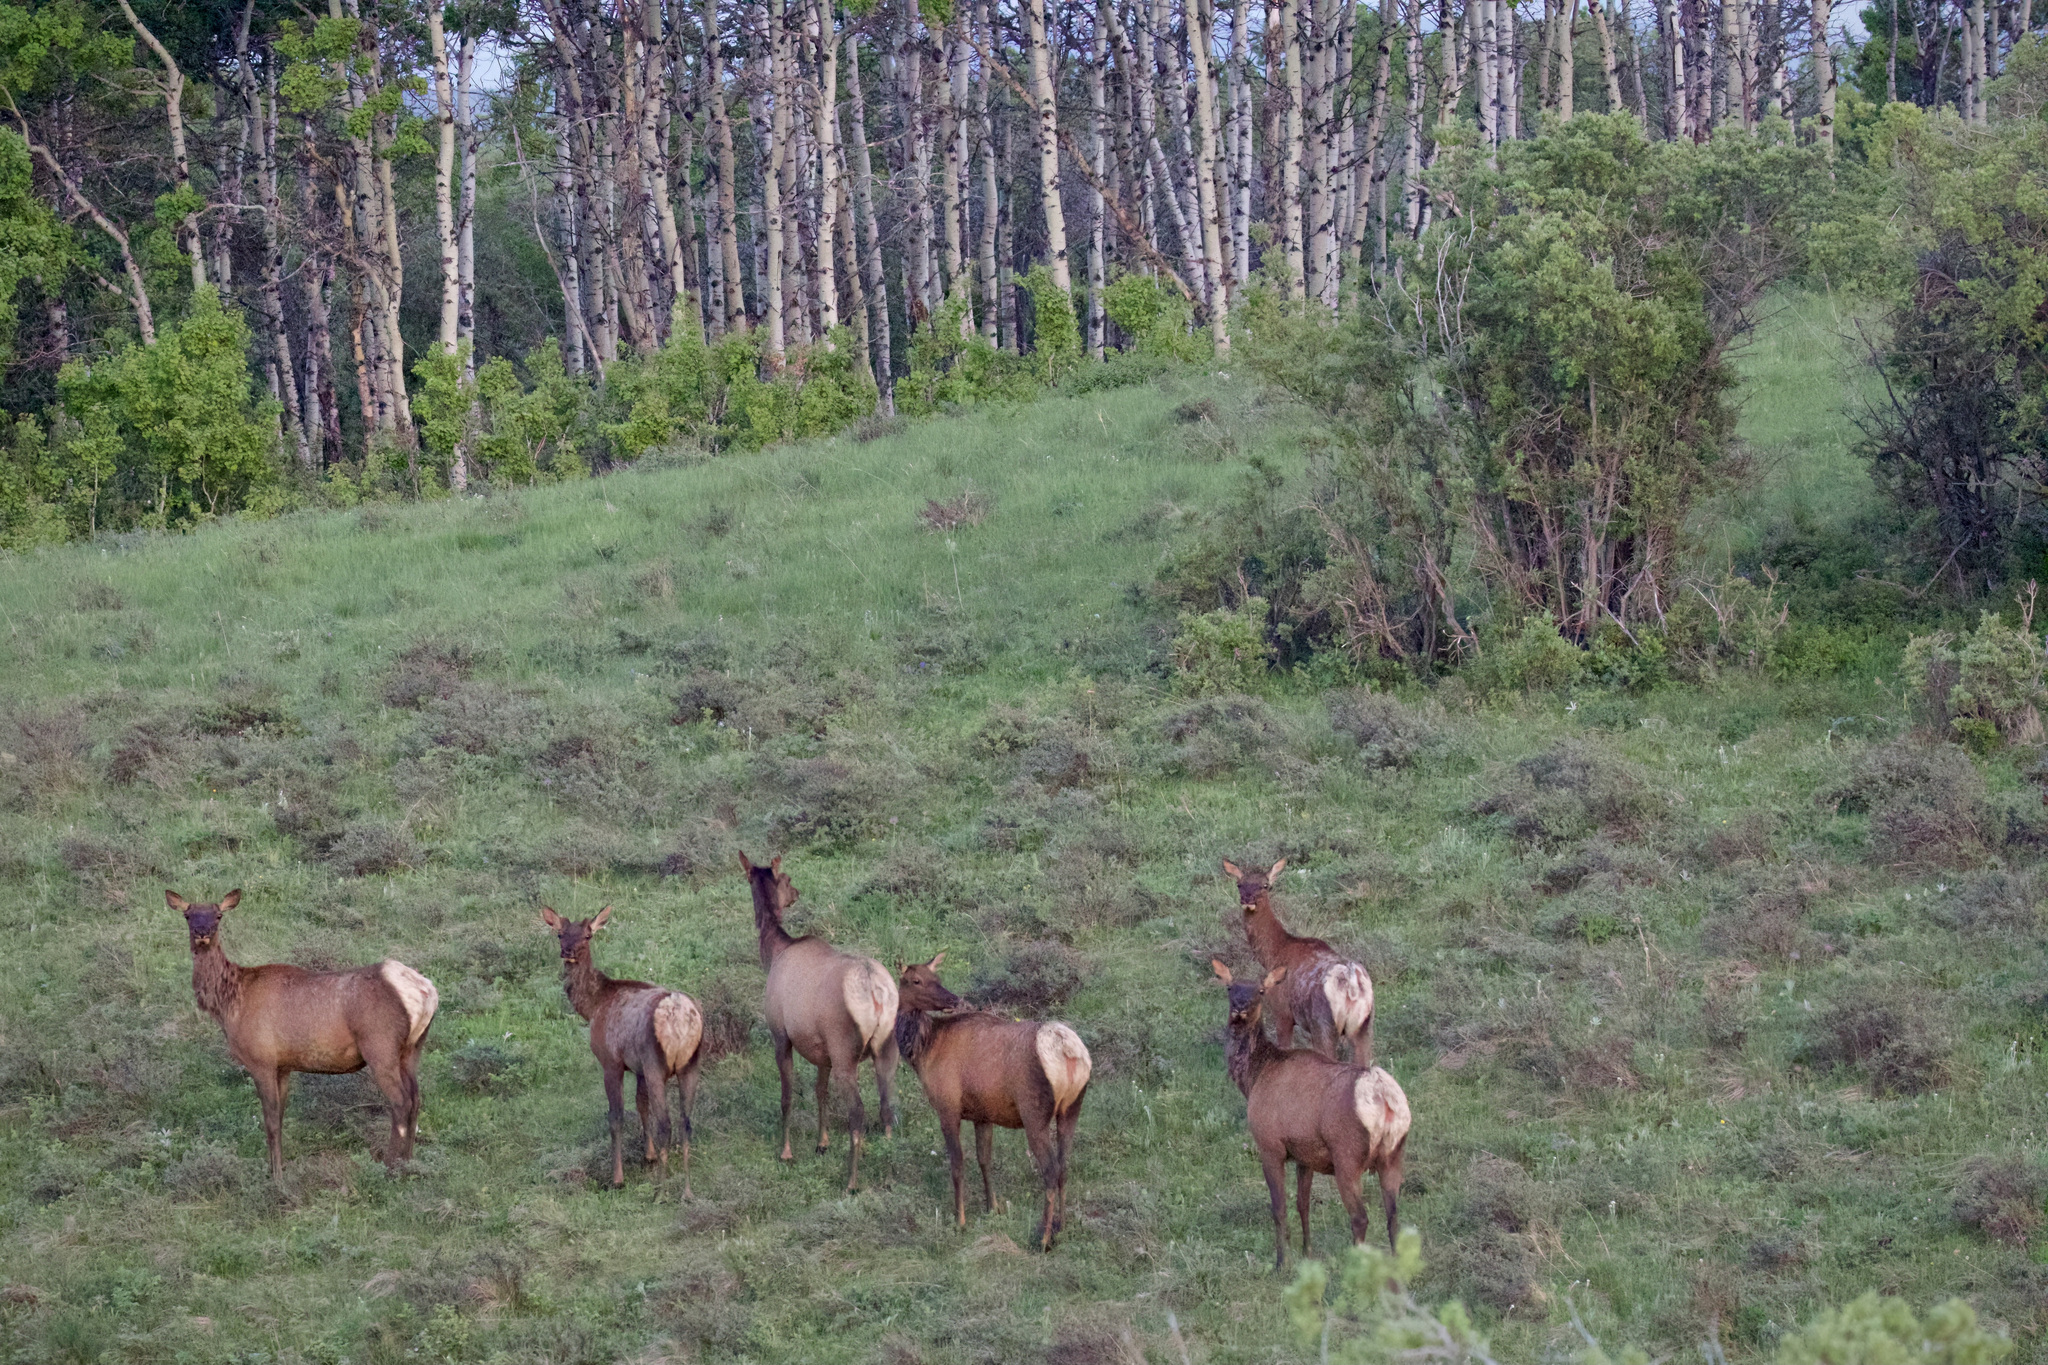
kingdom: Animalia
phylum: Chordata
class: Mammalia
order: Artiodactyla
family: Cervidae
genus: Cervus
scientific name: Cervus elaphus
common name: Red deer
